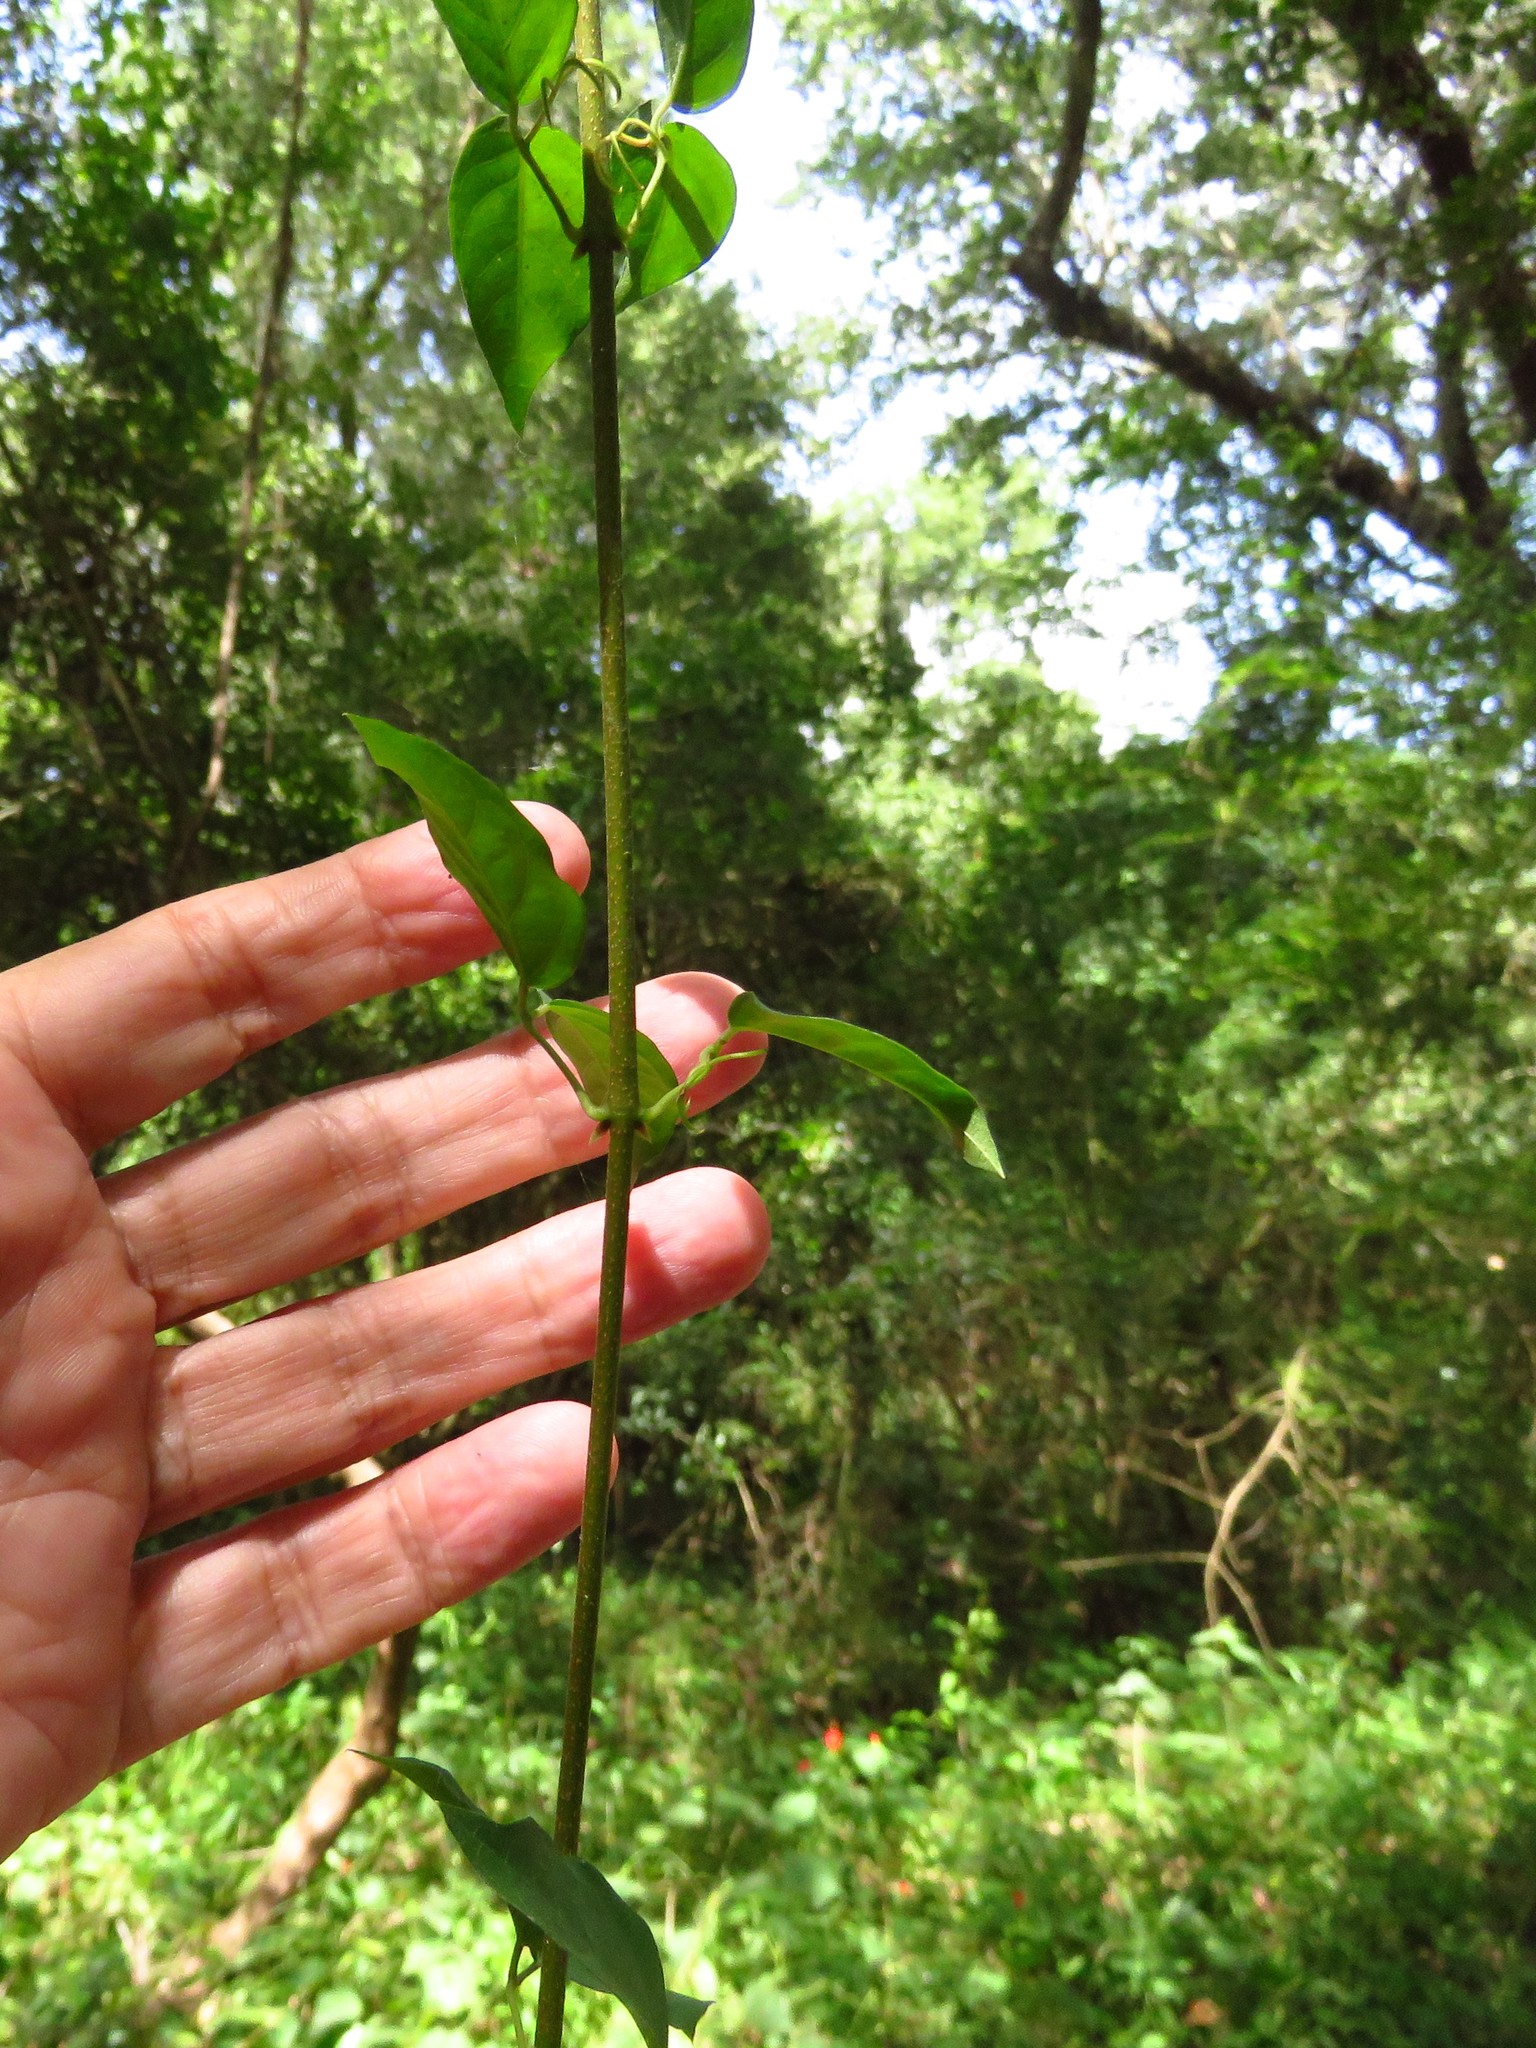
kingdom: Plantae
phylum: Tracheophyta
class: Magnoliopsida
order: Lamiales
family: Bignoniaceae
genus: Dolichandra
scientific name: Dolichandra unguis-cati
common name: Catclaw vine
